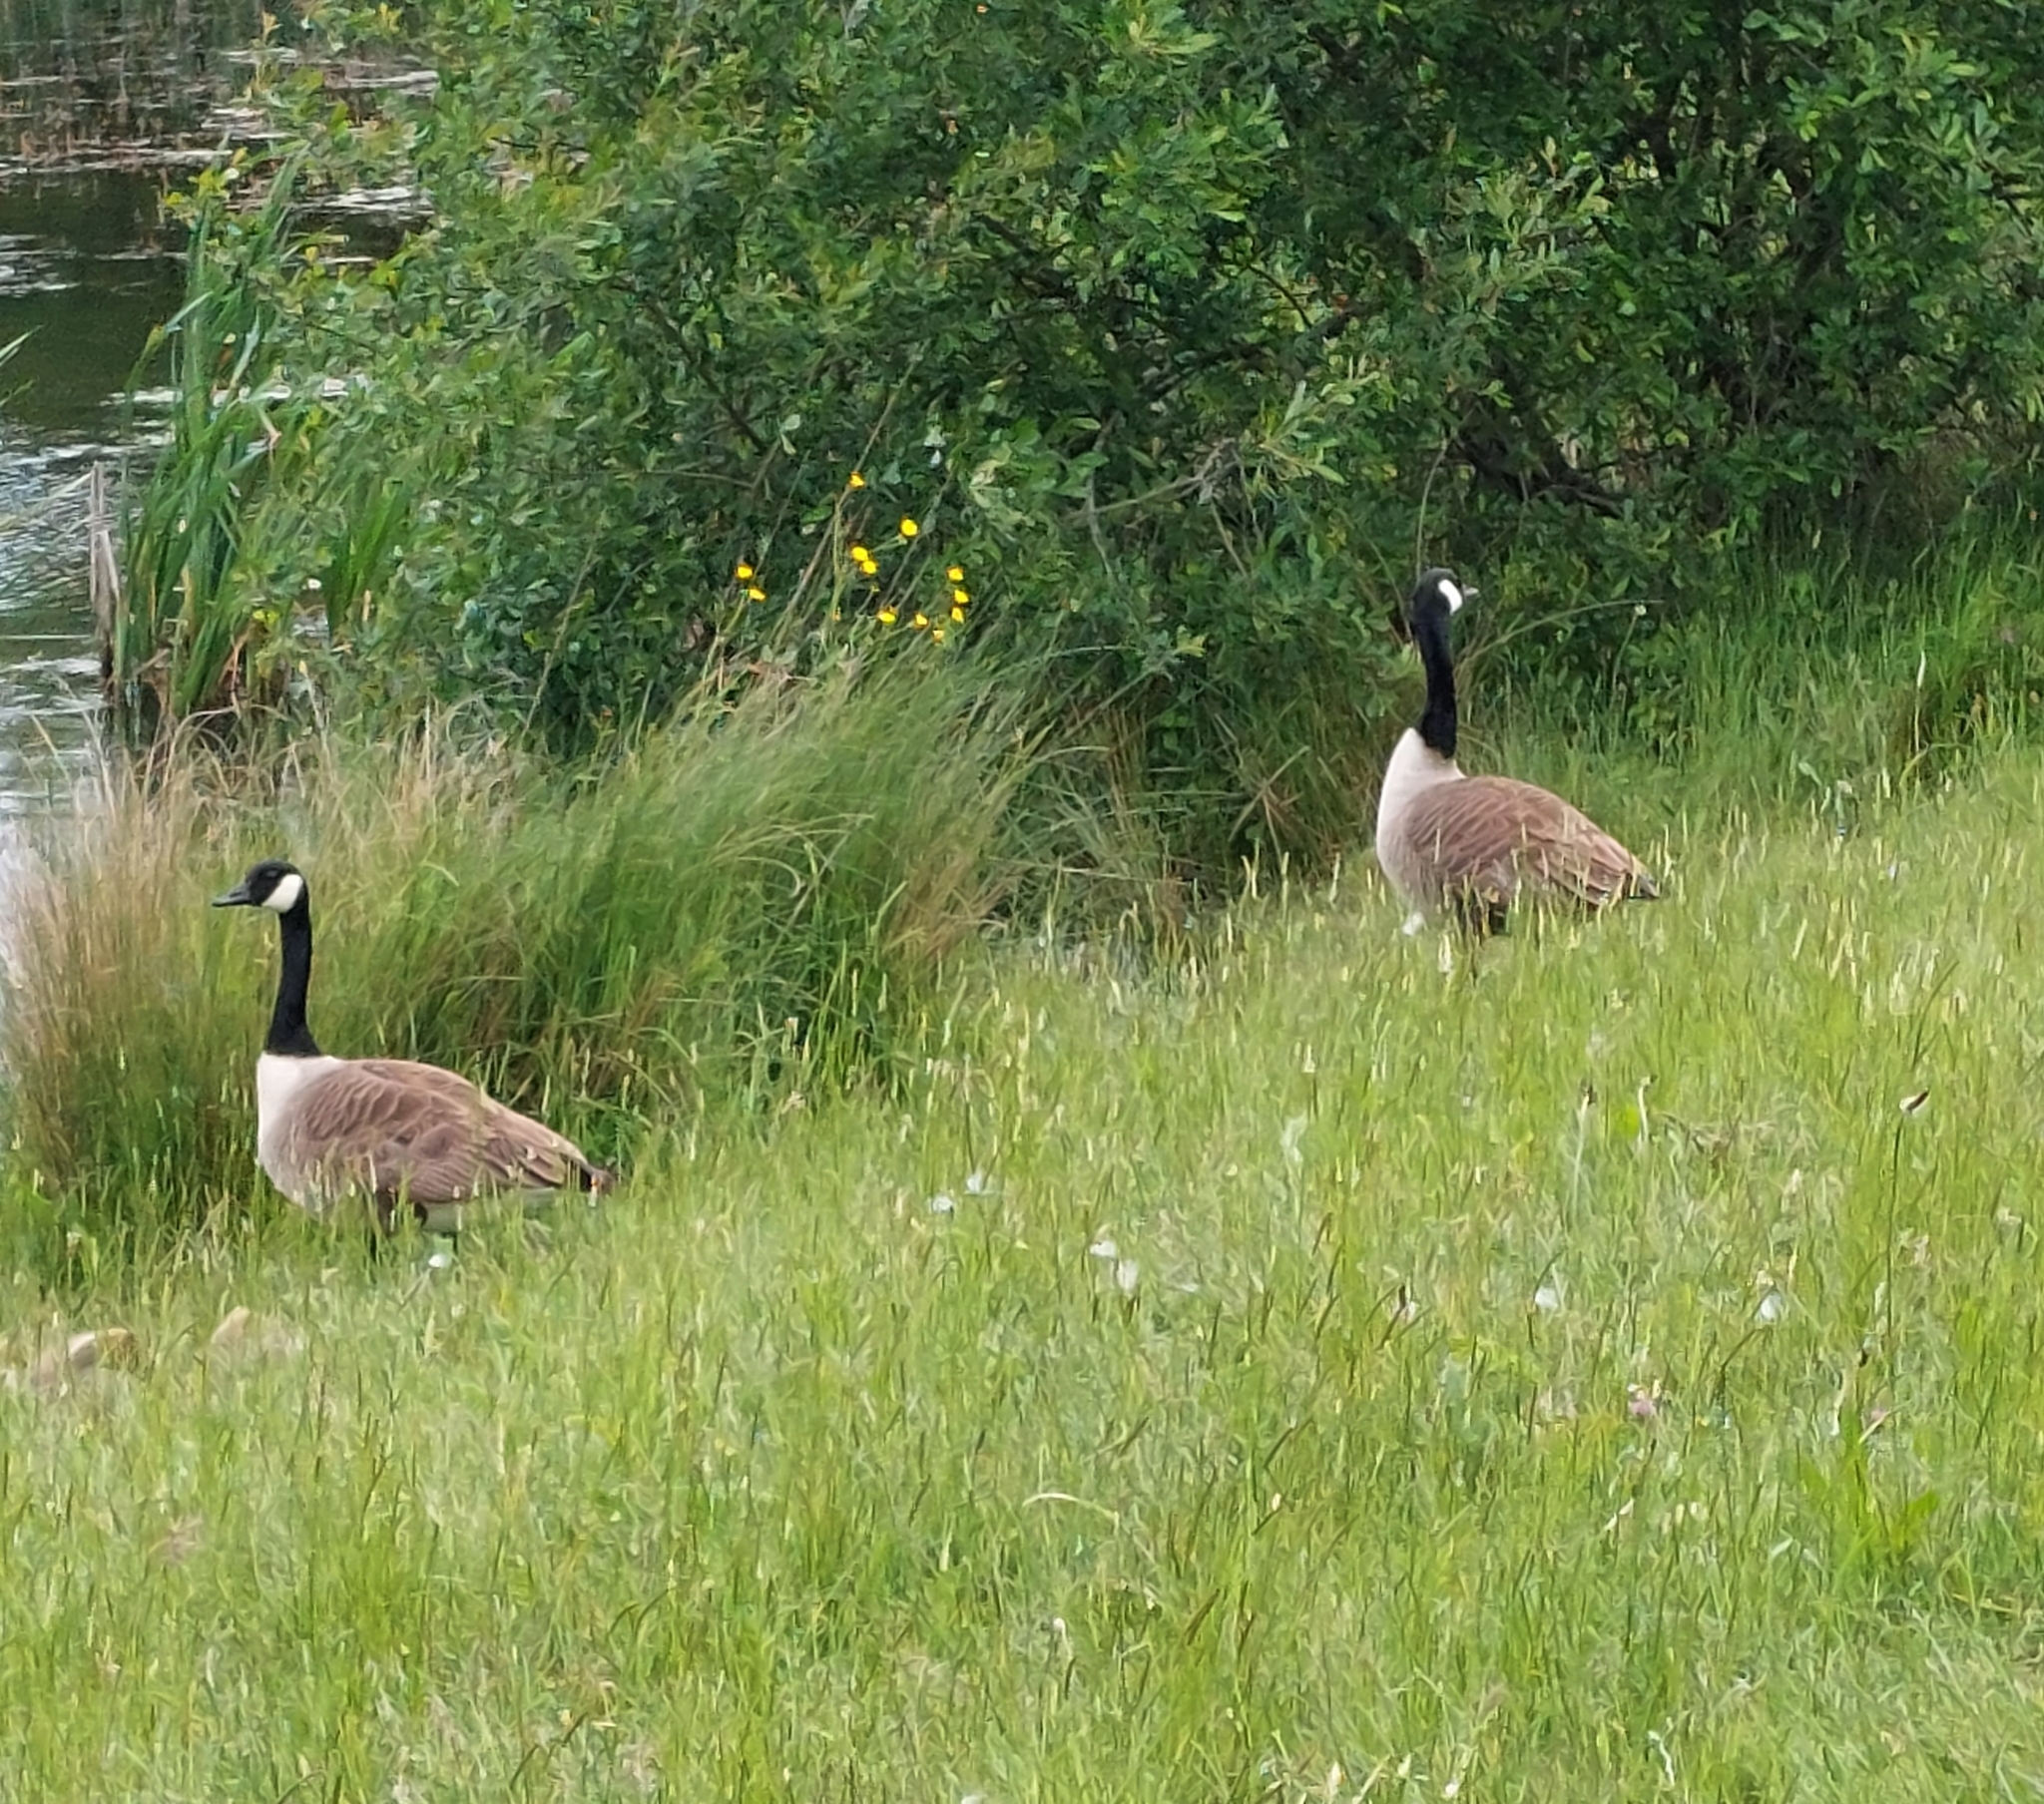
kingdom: Animalia
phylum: Chordata
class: Aves
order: Anseriformes
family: Anatidae
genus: Branta
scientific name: Branta canadensis
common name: Canada goose
